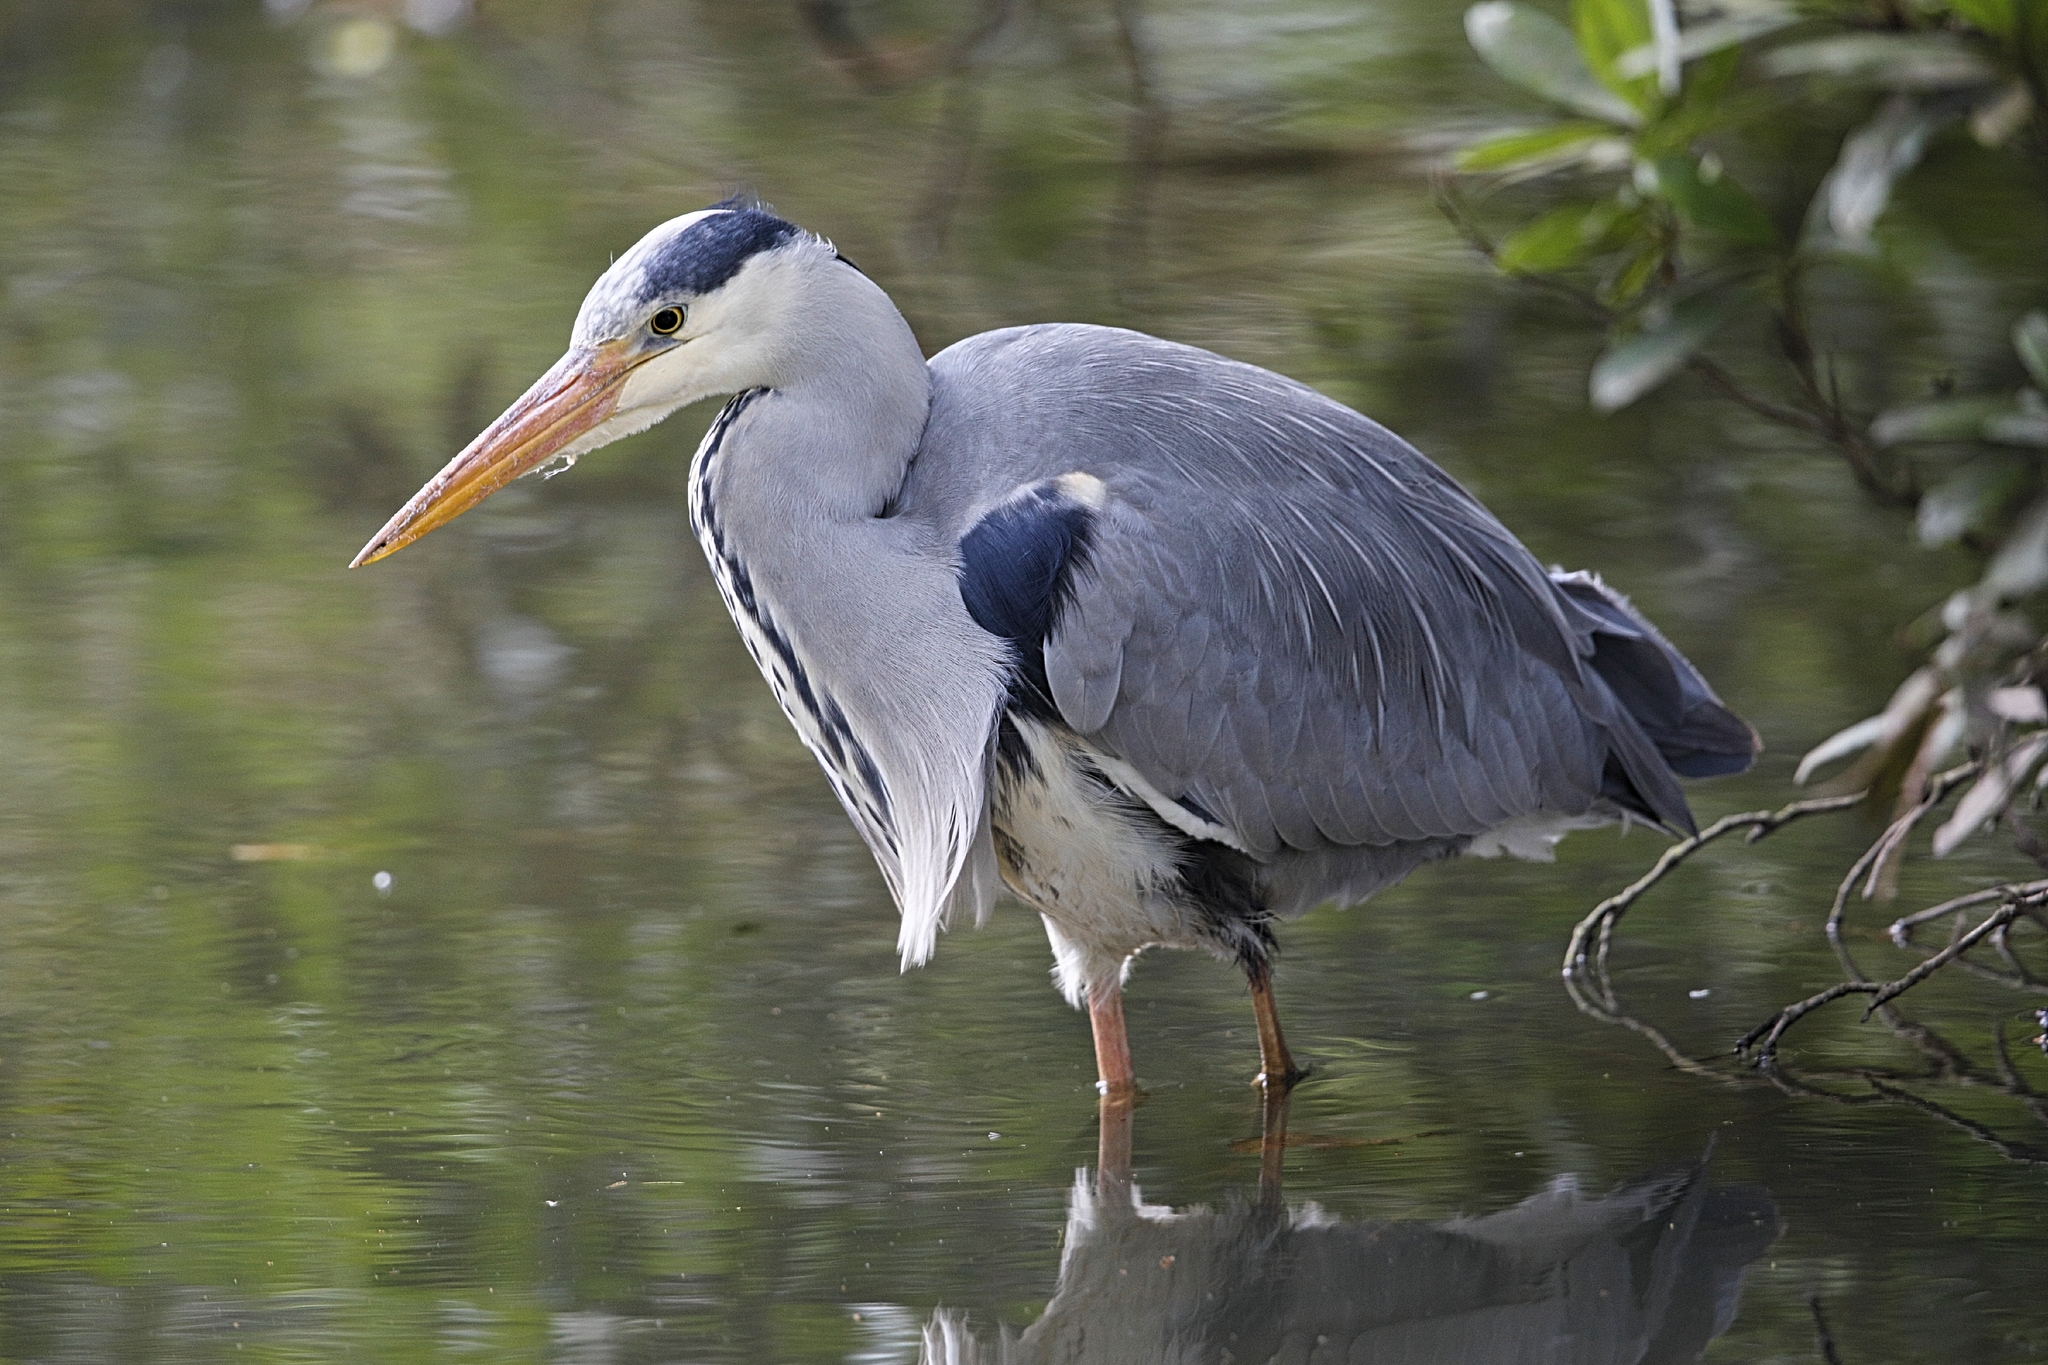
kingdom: Animalia
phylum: Chordata
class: Aves
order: Pelecaniformes
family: Ardeidae
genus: Ardea
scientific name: Ardea cinerea
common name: Grey heron
